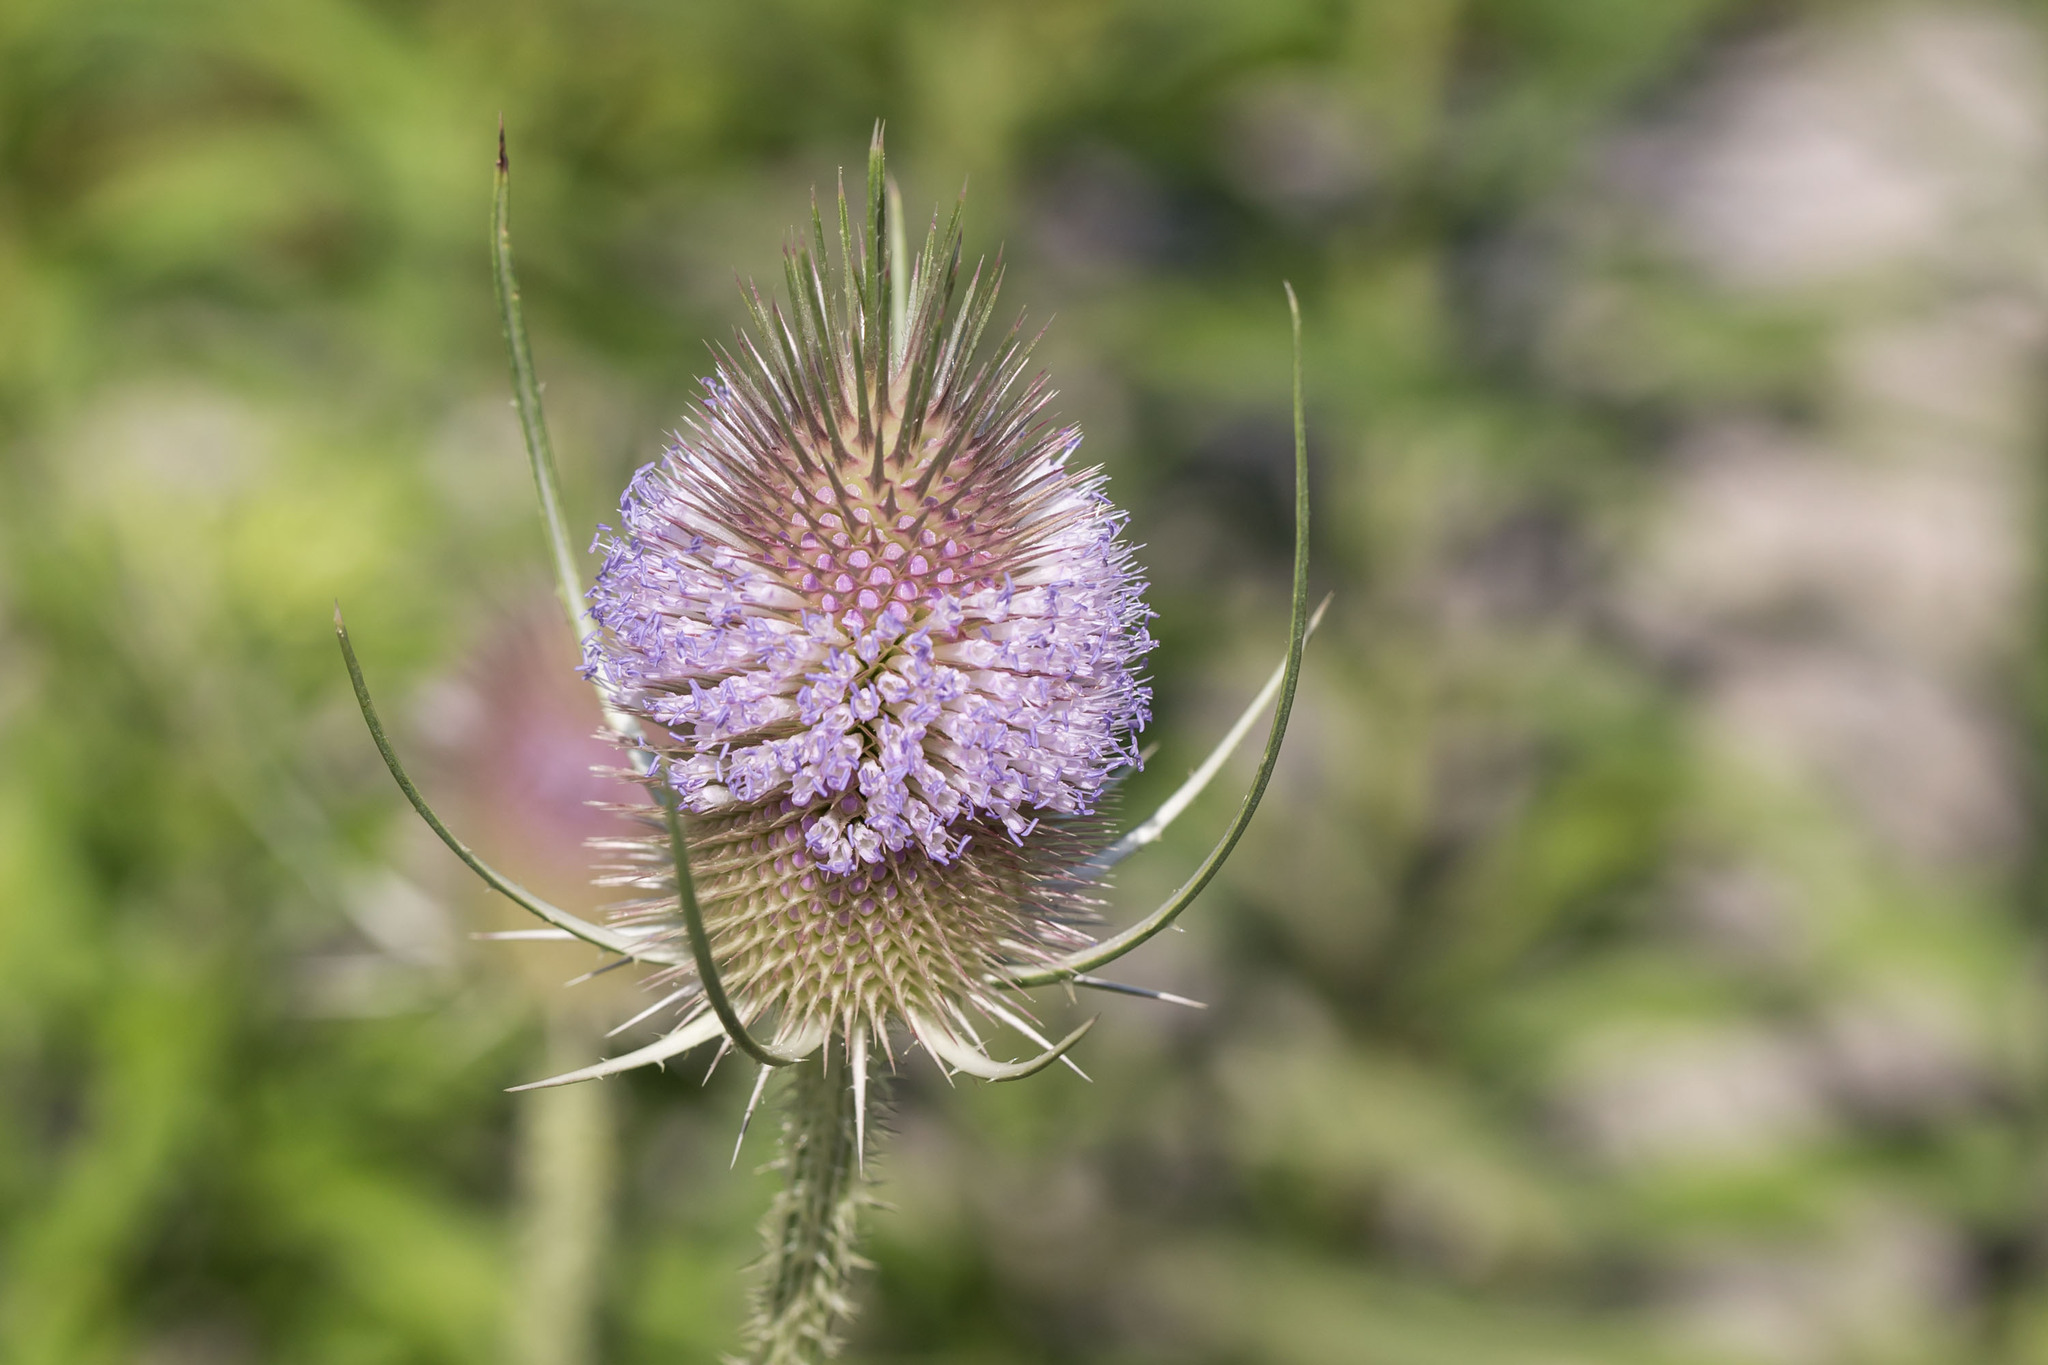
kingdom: Plantae
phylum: Tracheophyta
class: Magnoliopsida
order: Dipsacales
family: Caprifoliaceae
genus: Dipsacus
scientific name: Dipsacus fullonum
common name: Teasel
